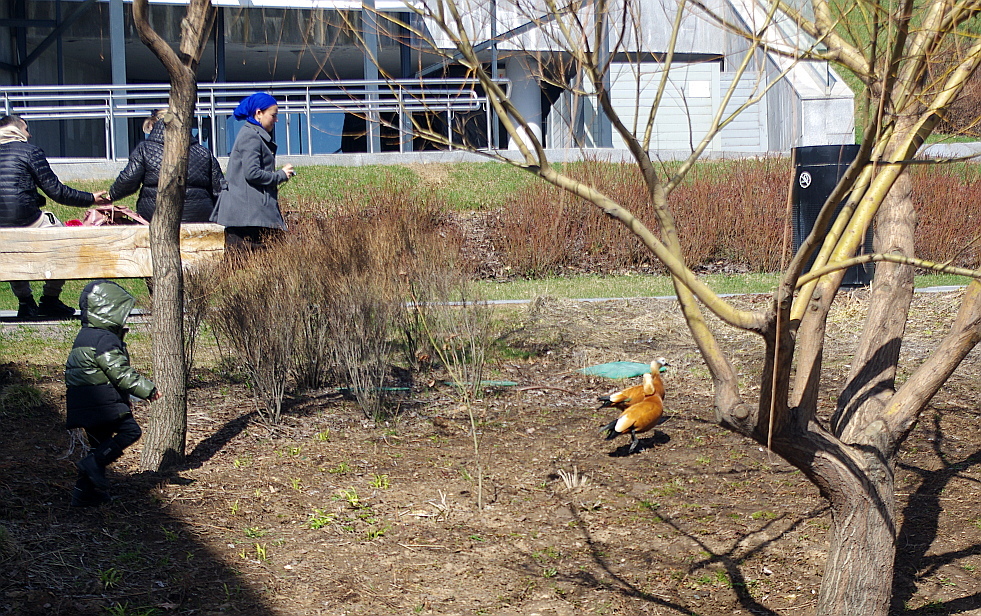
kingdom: Animalia
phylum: Chordata
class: Aves
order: Anseriformes
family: Anatidae
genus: Tadorna
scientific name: Tadorna ferruginea
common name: Ruddy shelduck
